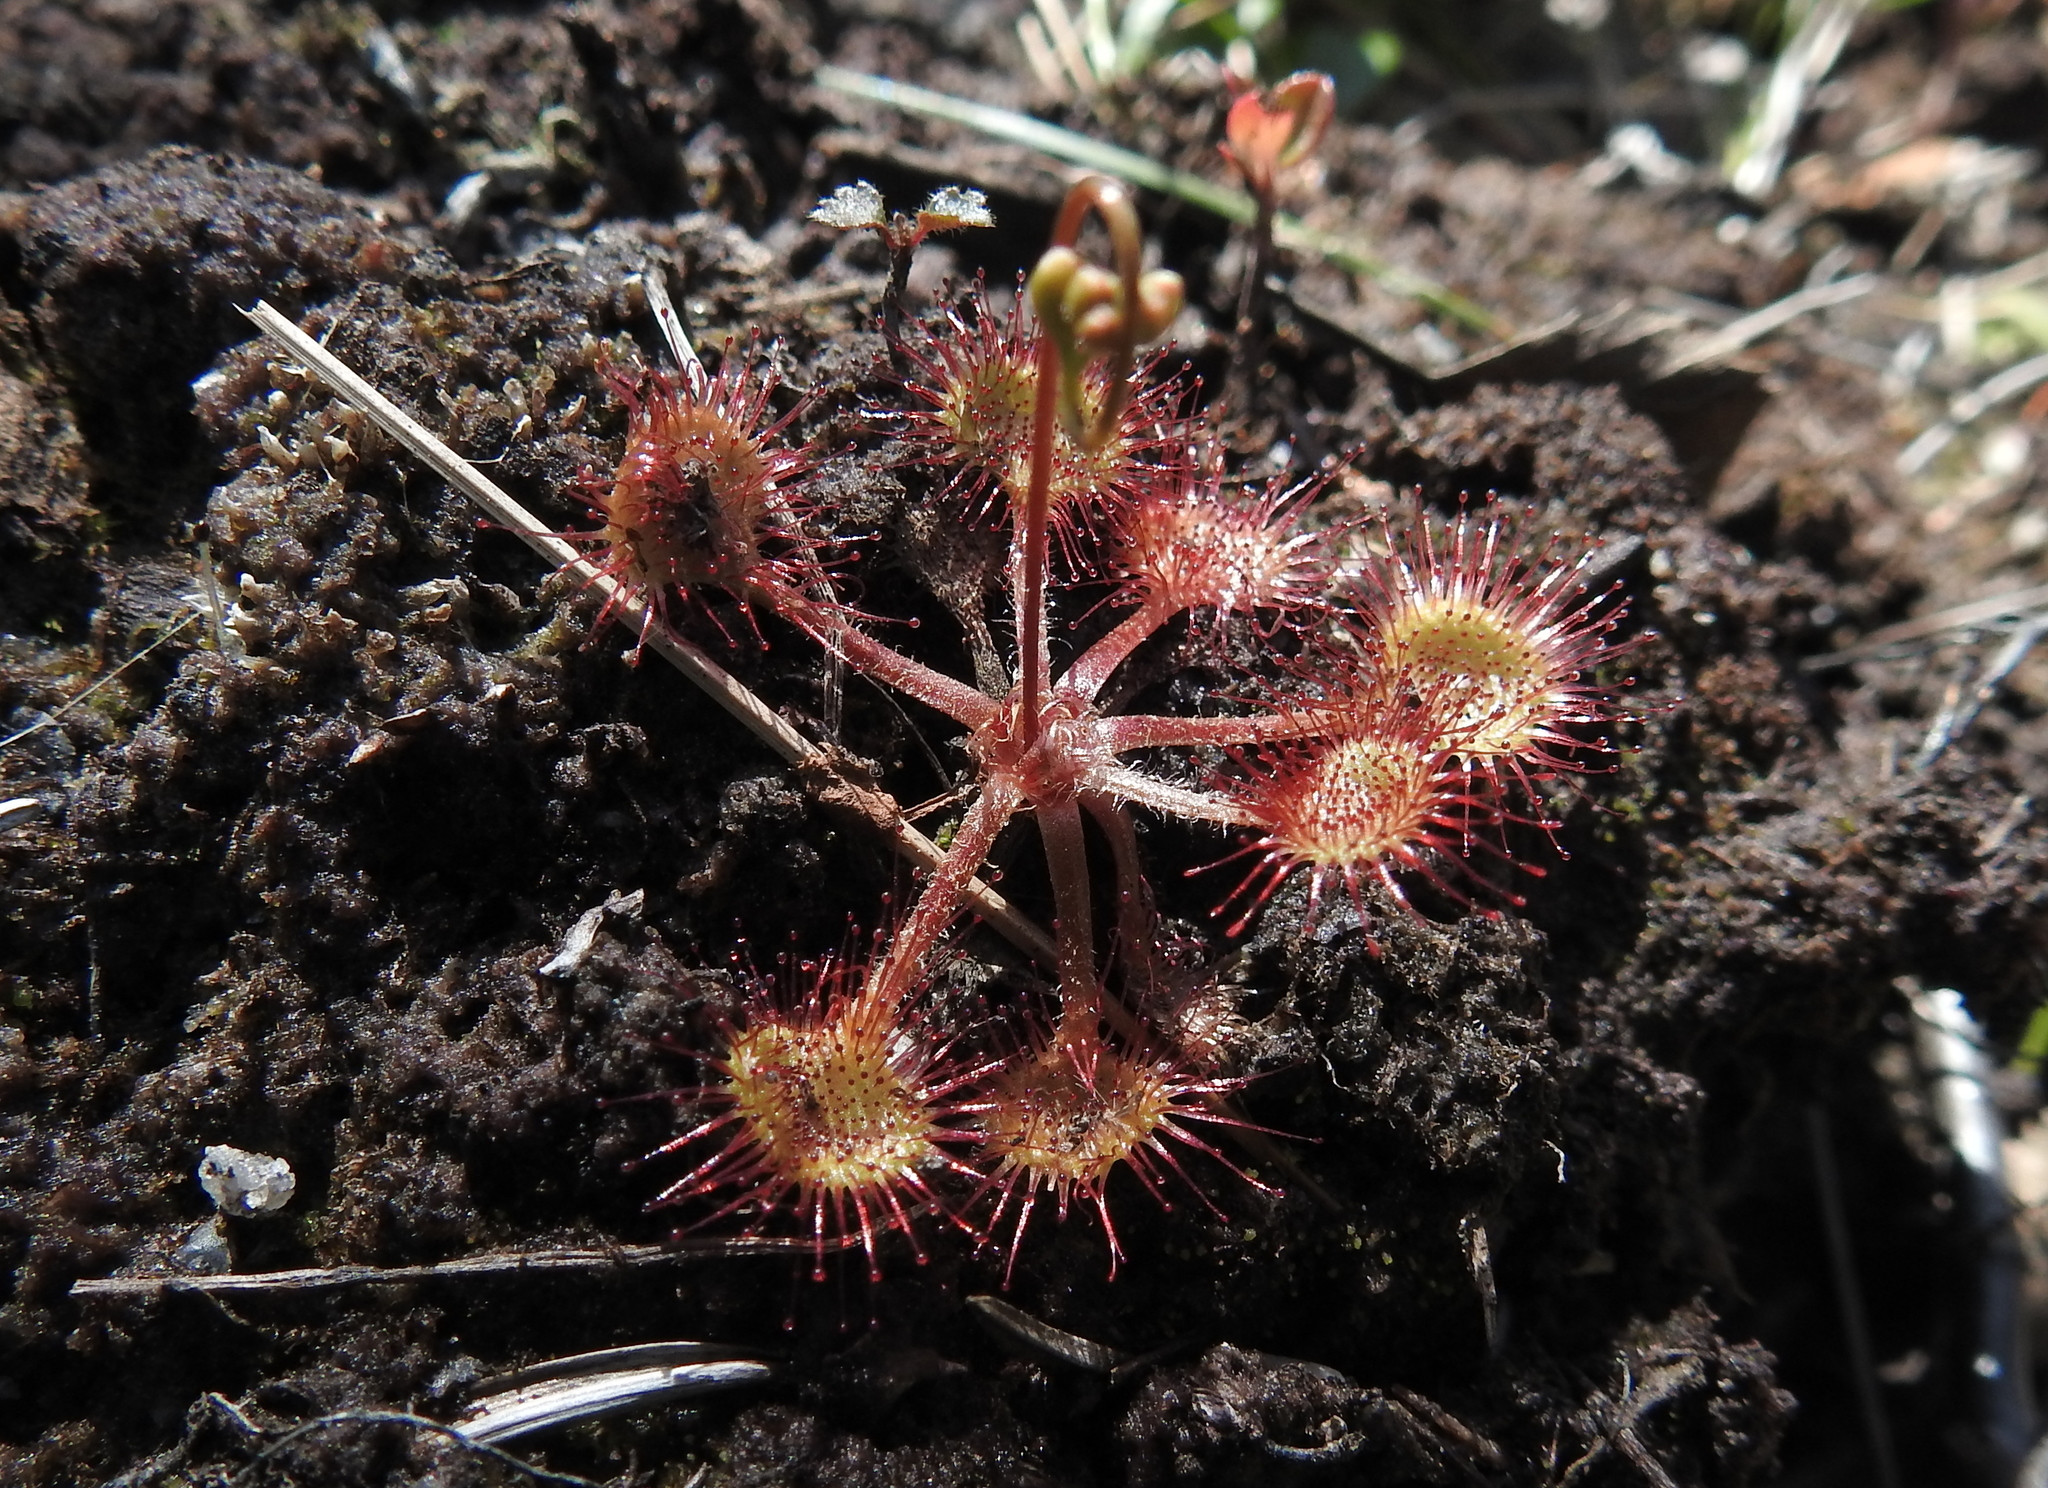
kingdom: Plantae
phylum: Tracheophyta
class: Magnoliopsida
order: Caryophyllales
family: Droseraceae
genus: Drosera
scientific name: Drosera rotundifolia
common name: Round-leaved sundew
